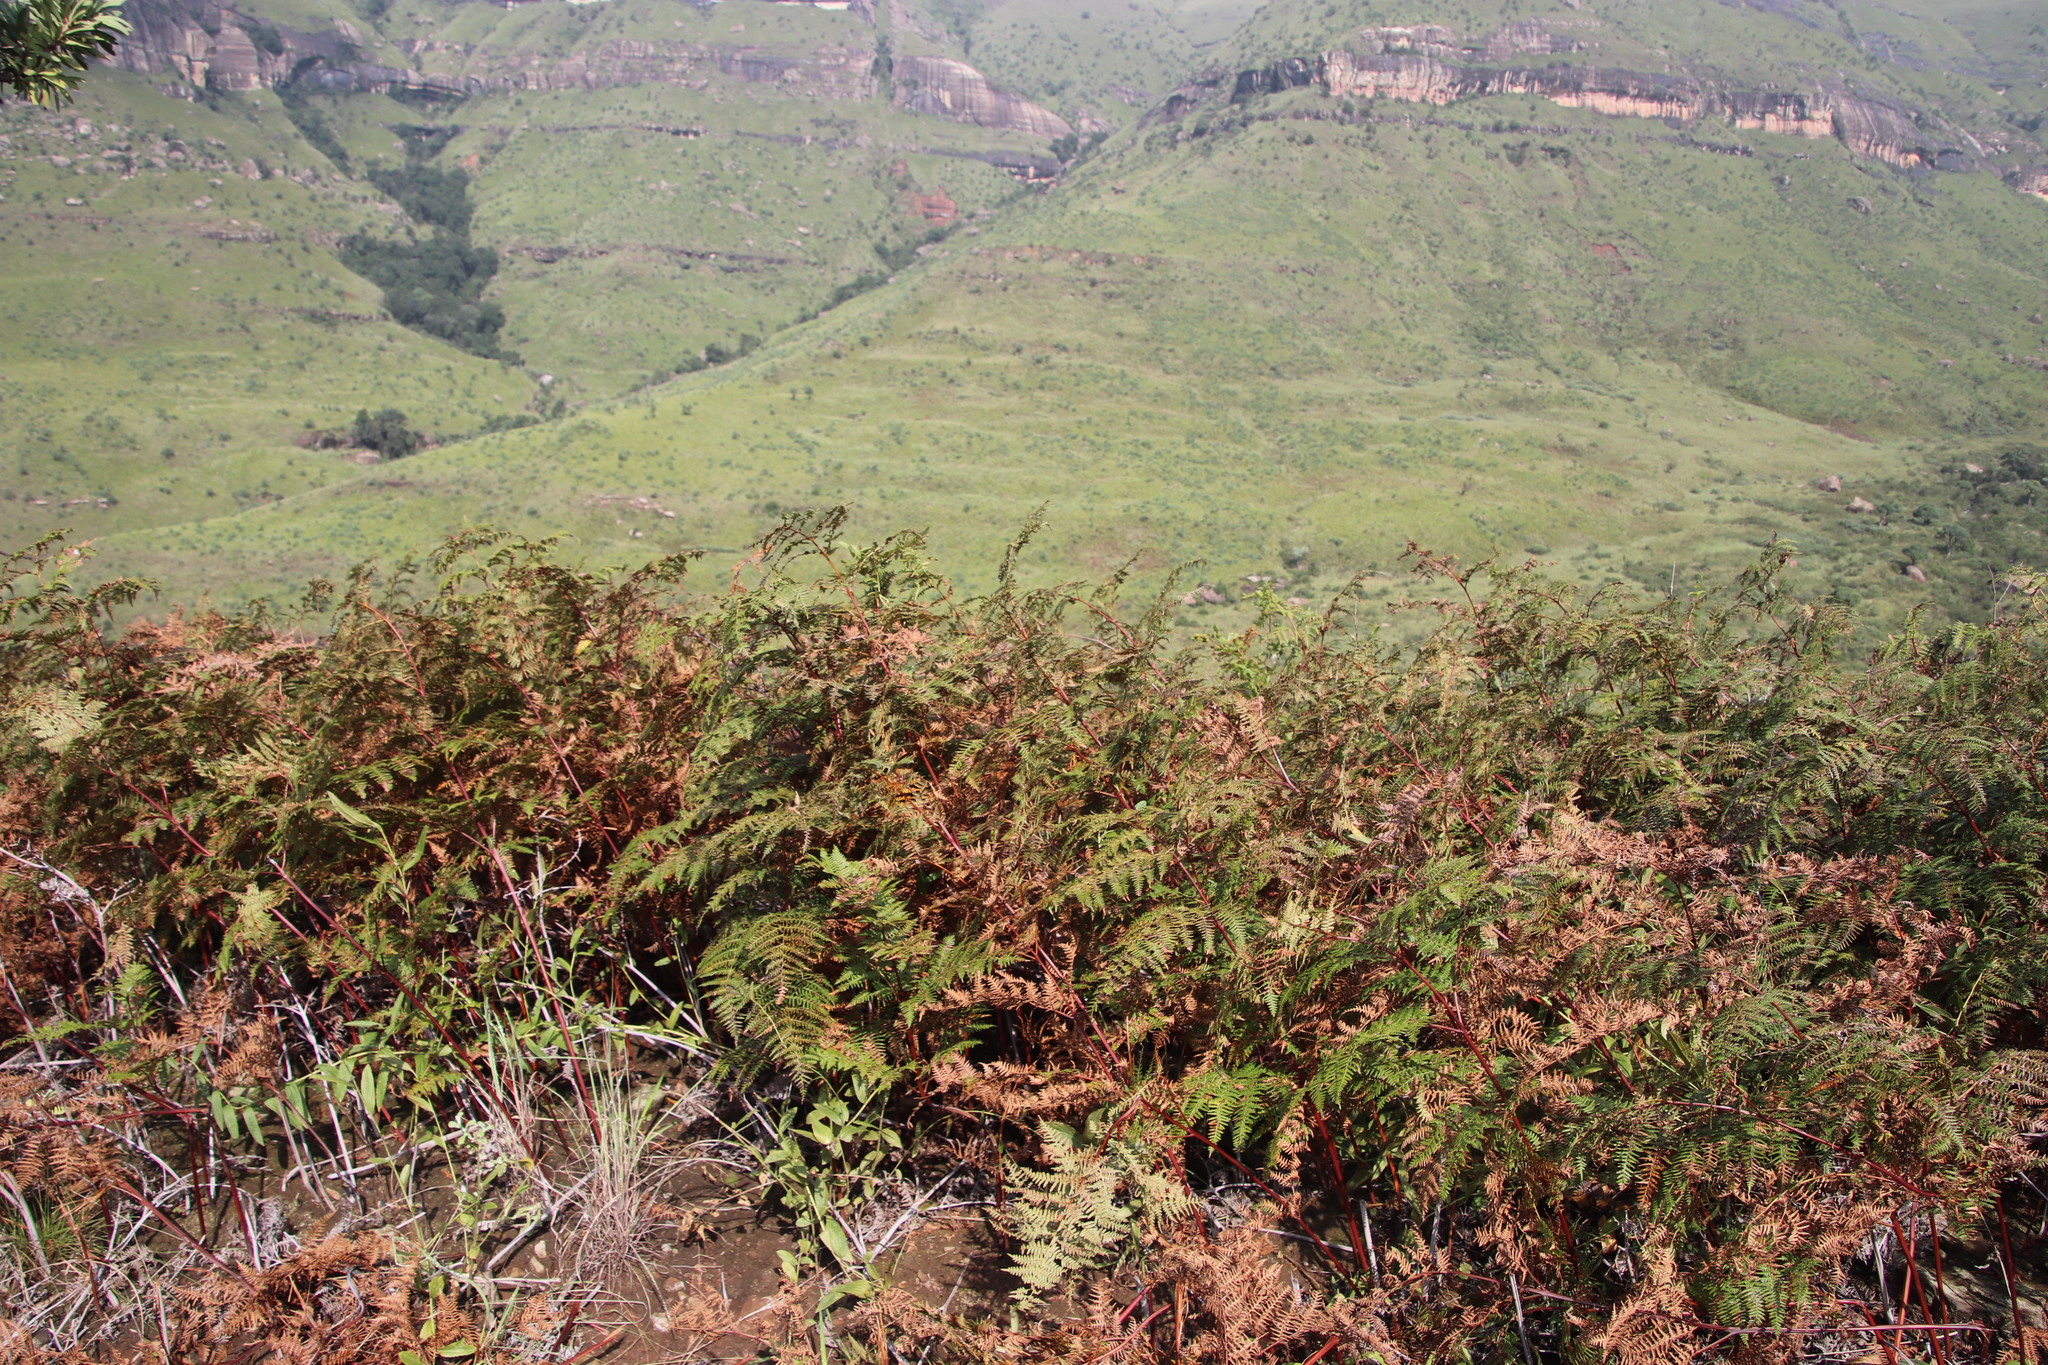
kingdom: Plantae
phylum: Tracheophyta
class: Polypodiopsida
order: Polypodiales
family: Dennstaedtiaceae
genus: Pteridium
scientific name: Pteridium aquilinum
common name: Bracken
